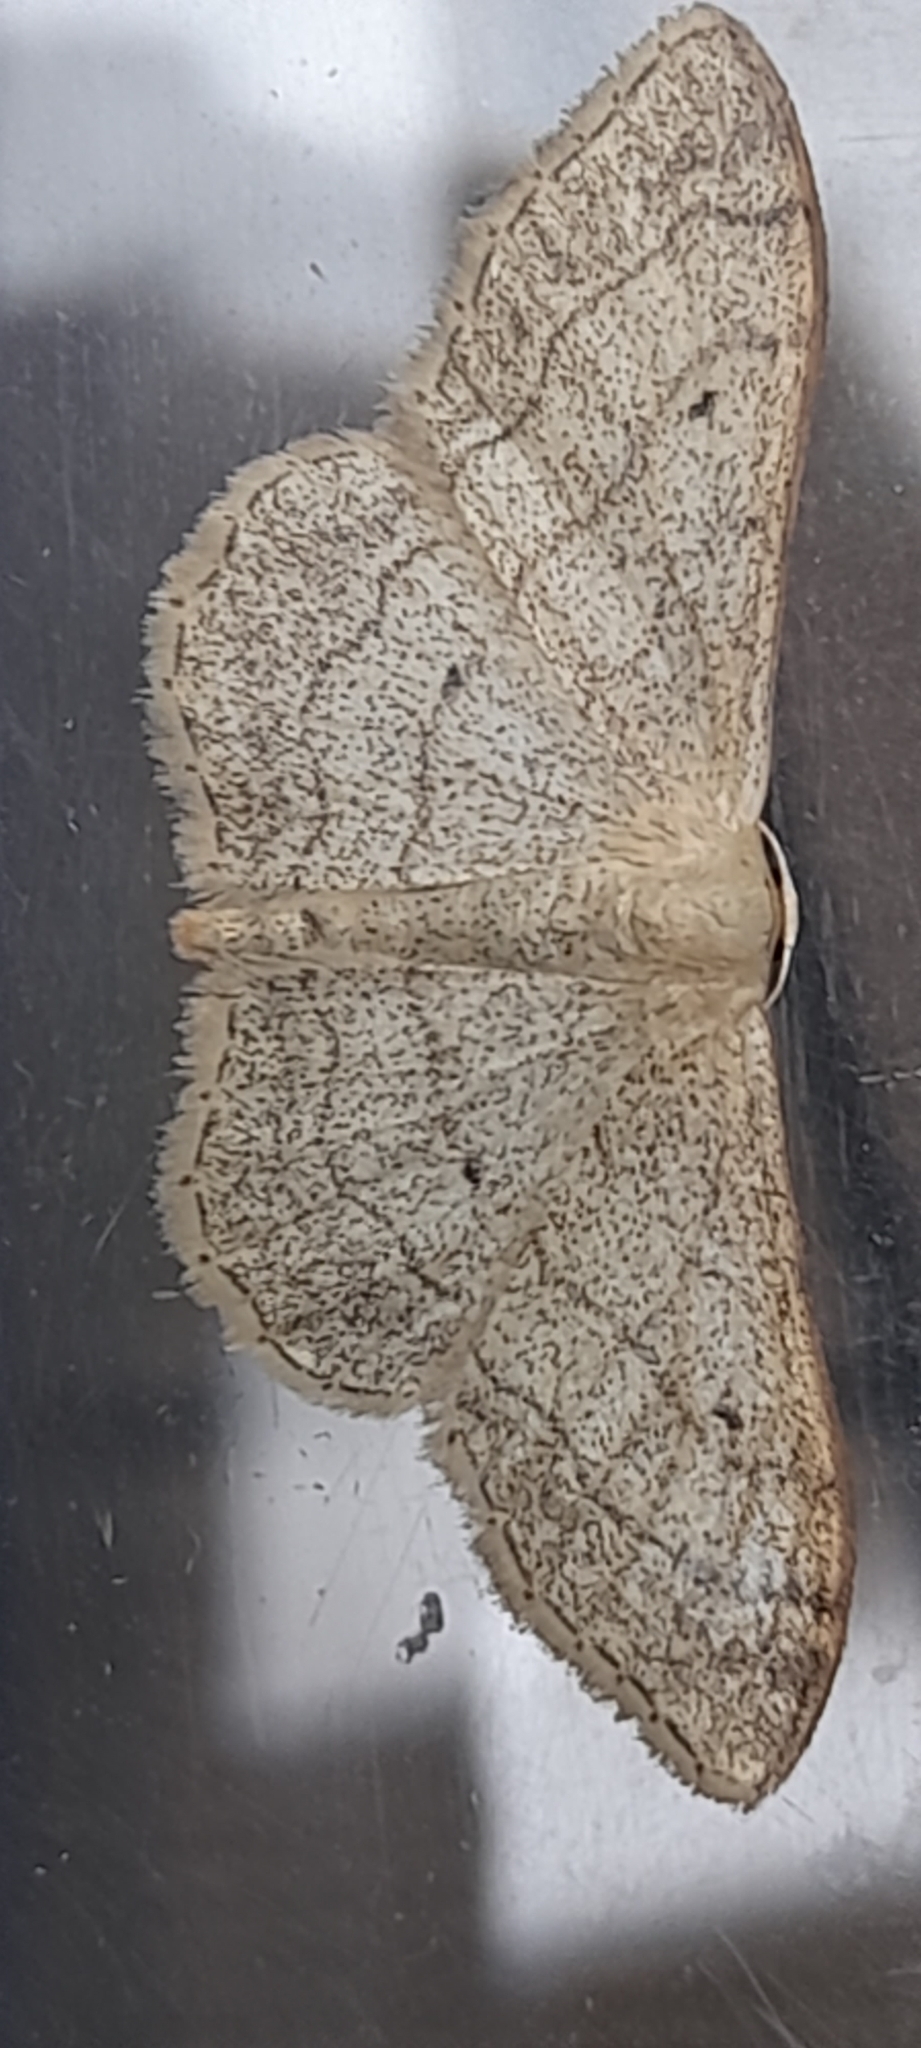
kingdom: Animalia
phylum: Arthropoda
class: Insecta
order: Lepidoptera
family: Geometridae
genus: Idaea
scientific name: Idaea aversata
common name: Riband wave
